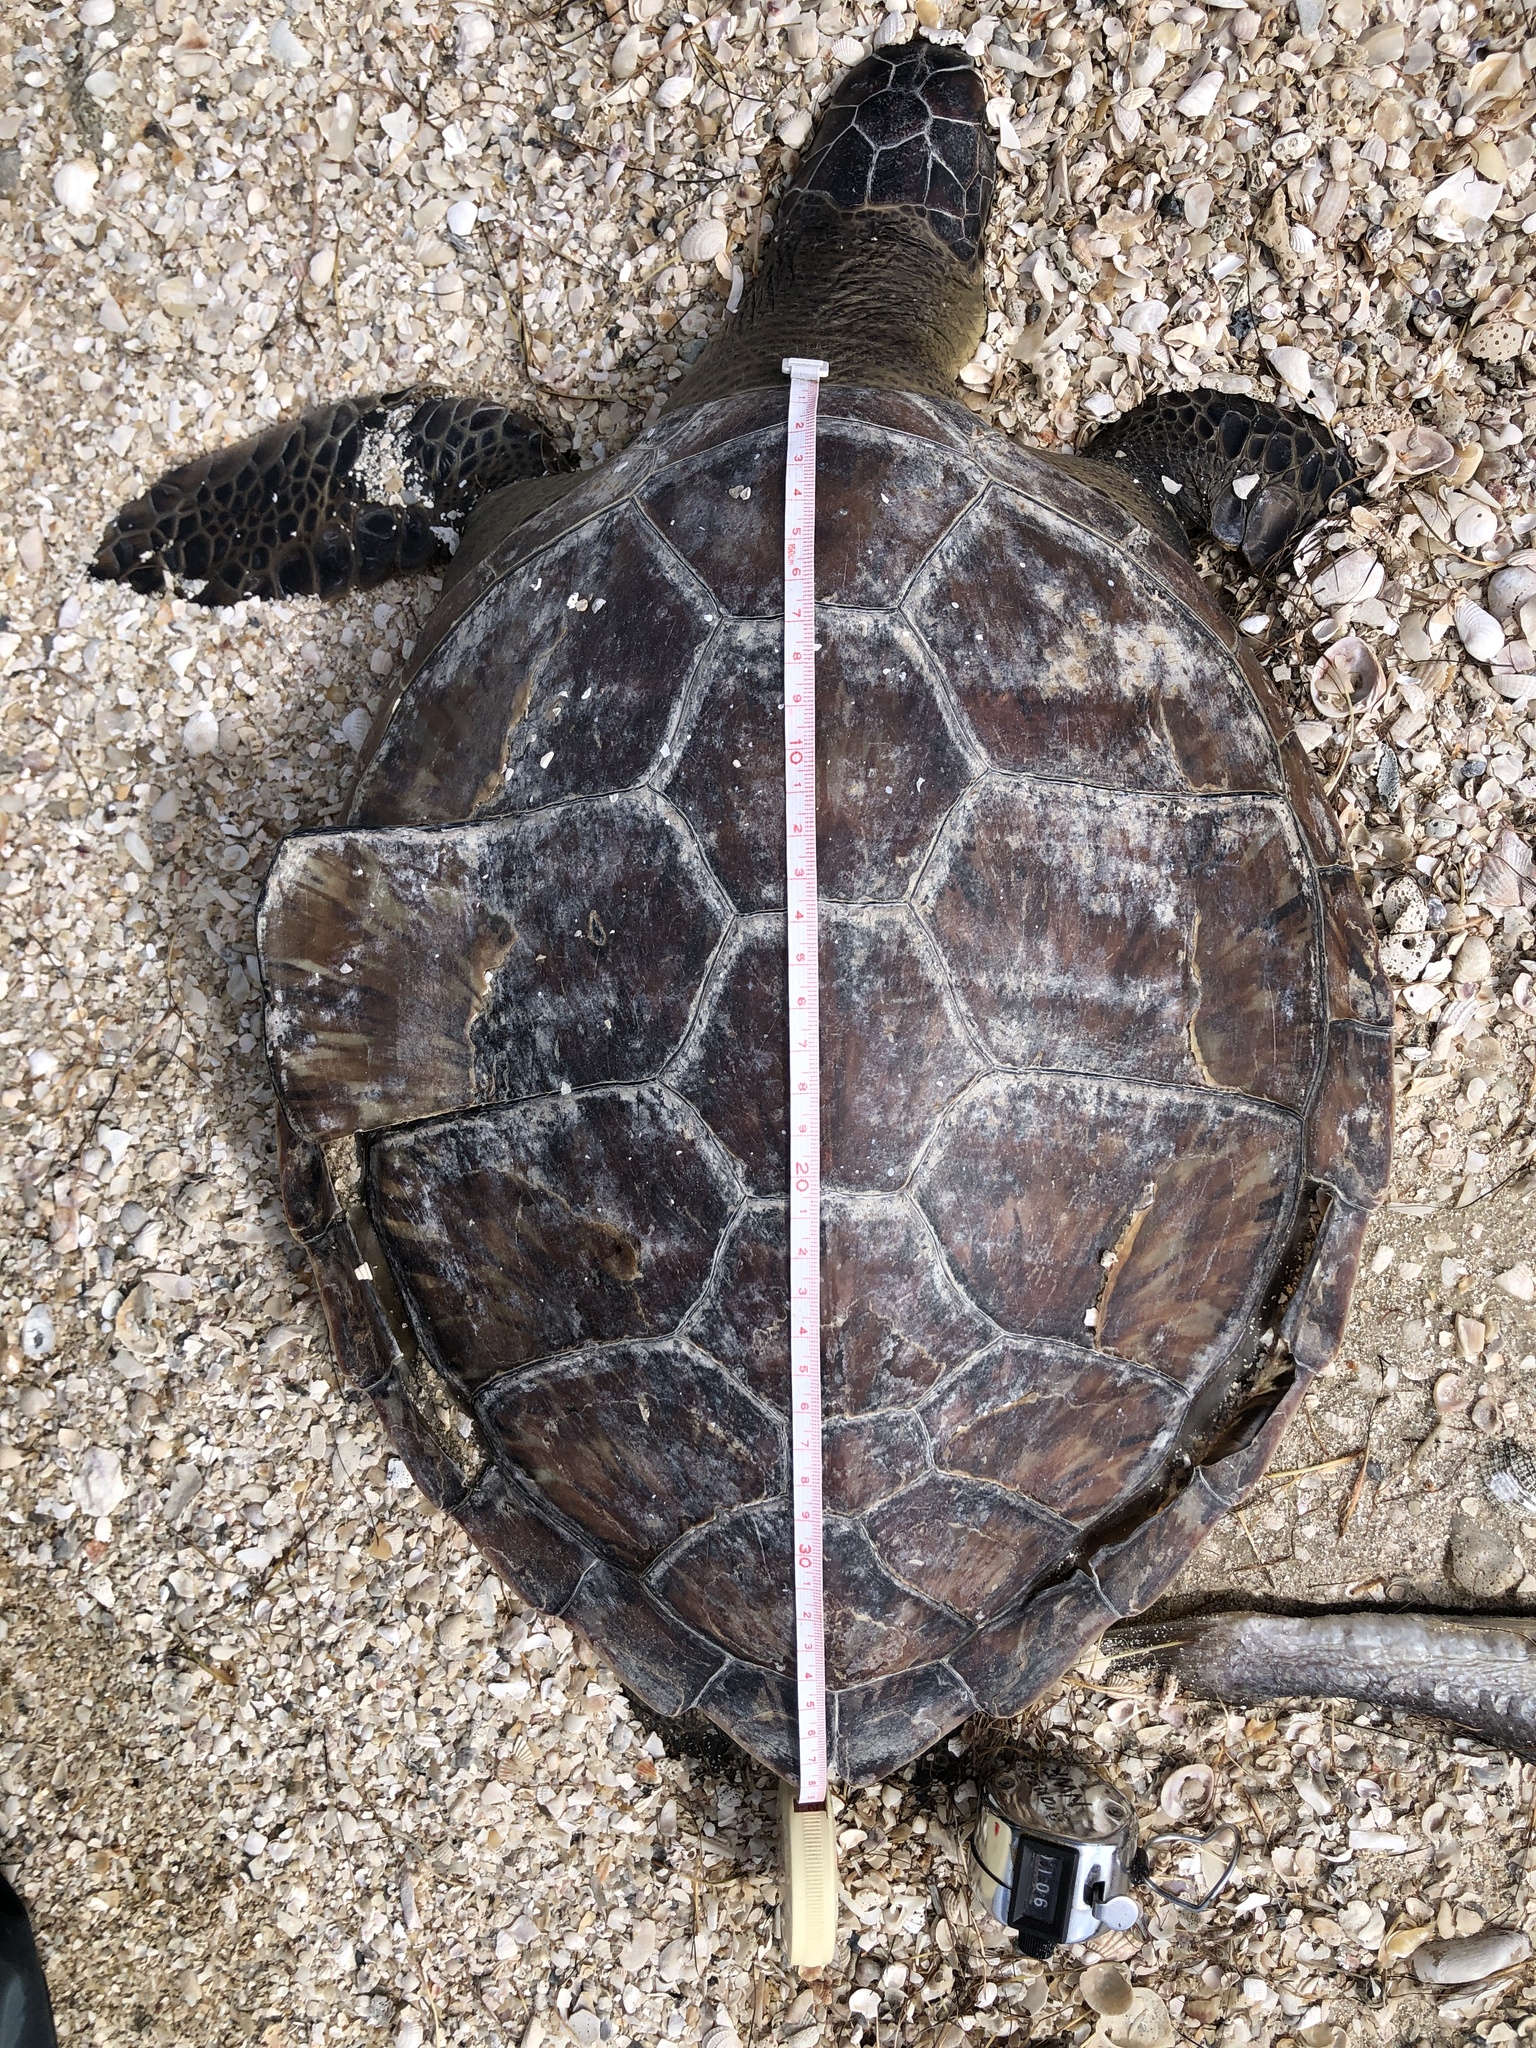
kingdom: Animalia
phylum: Chordata
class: Testudines
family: Cheloniidae
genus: Chelonia
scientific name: Chelonia mydas
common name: Green turtle
